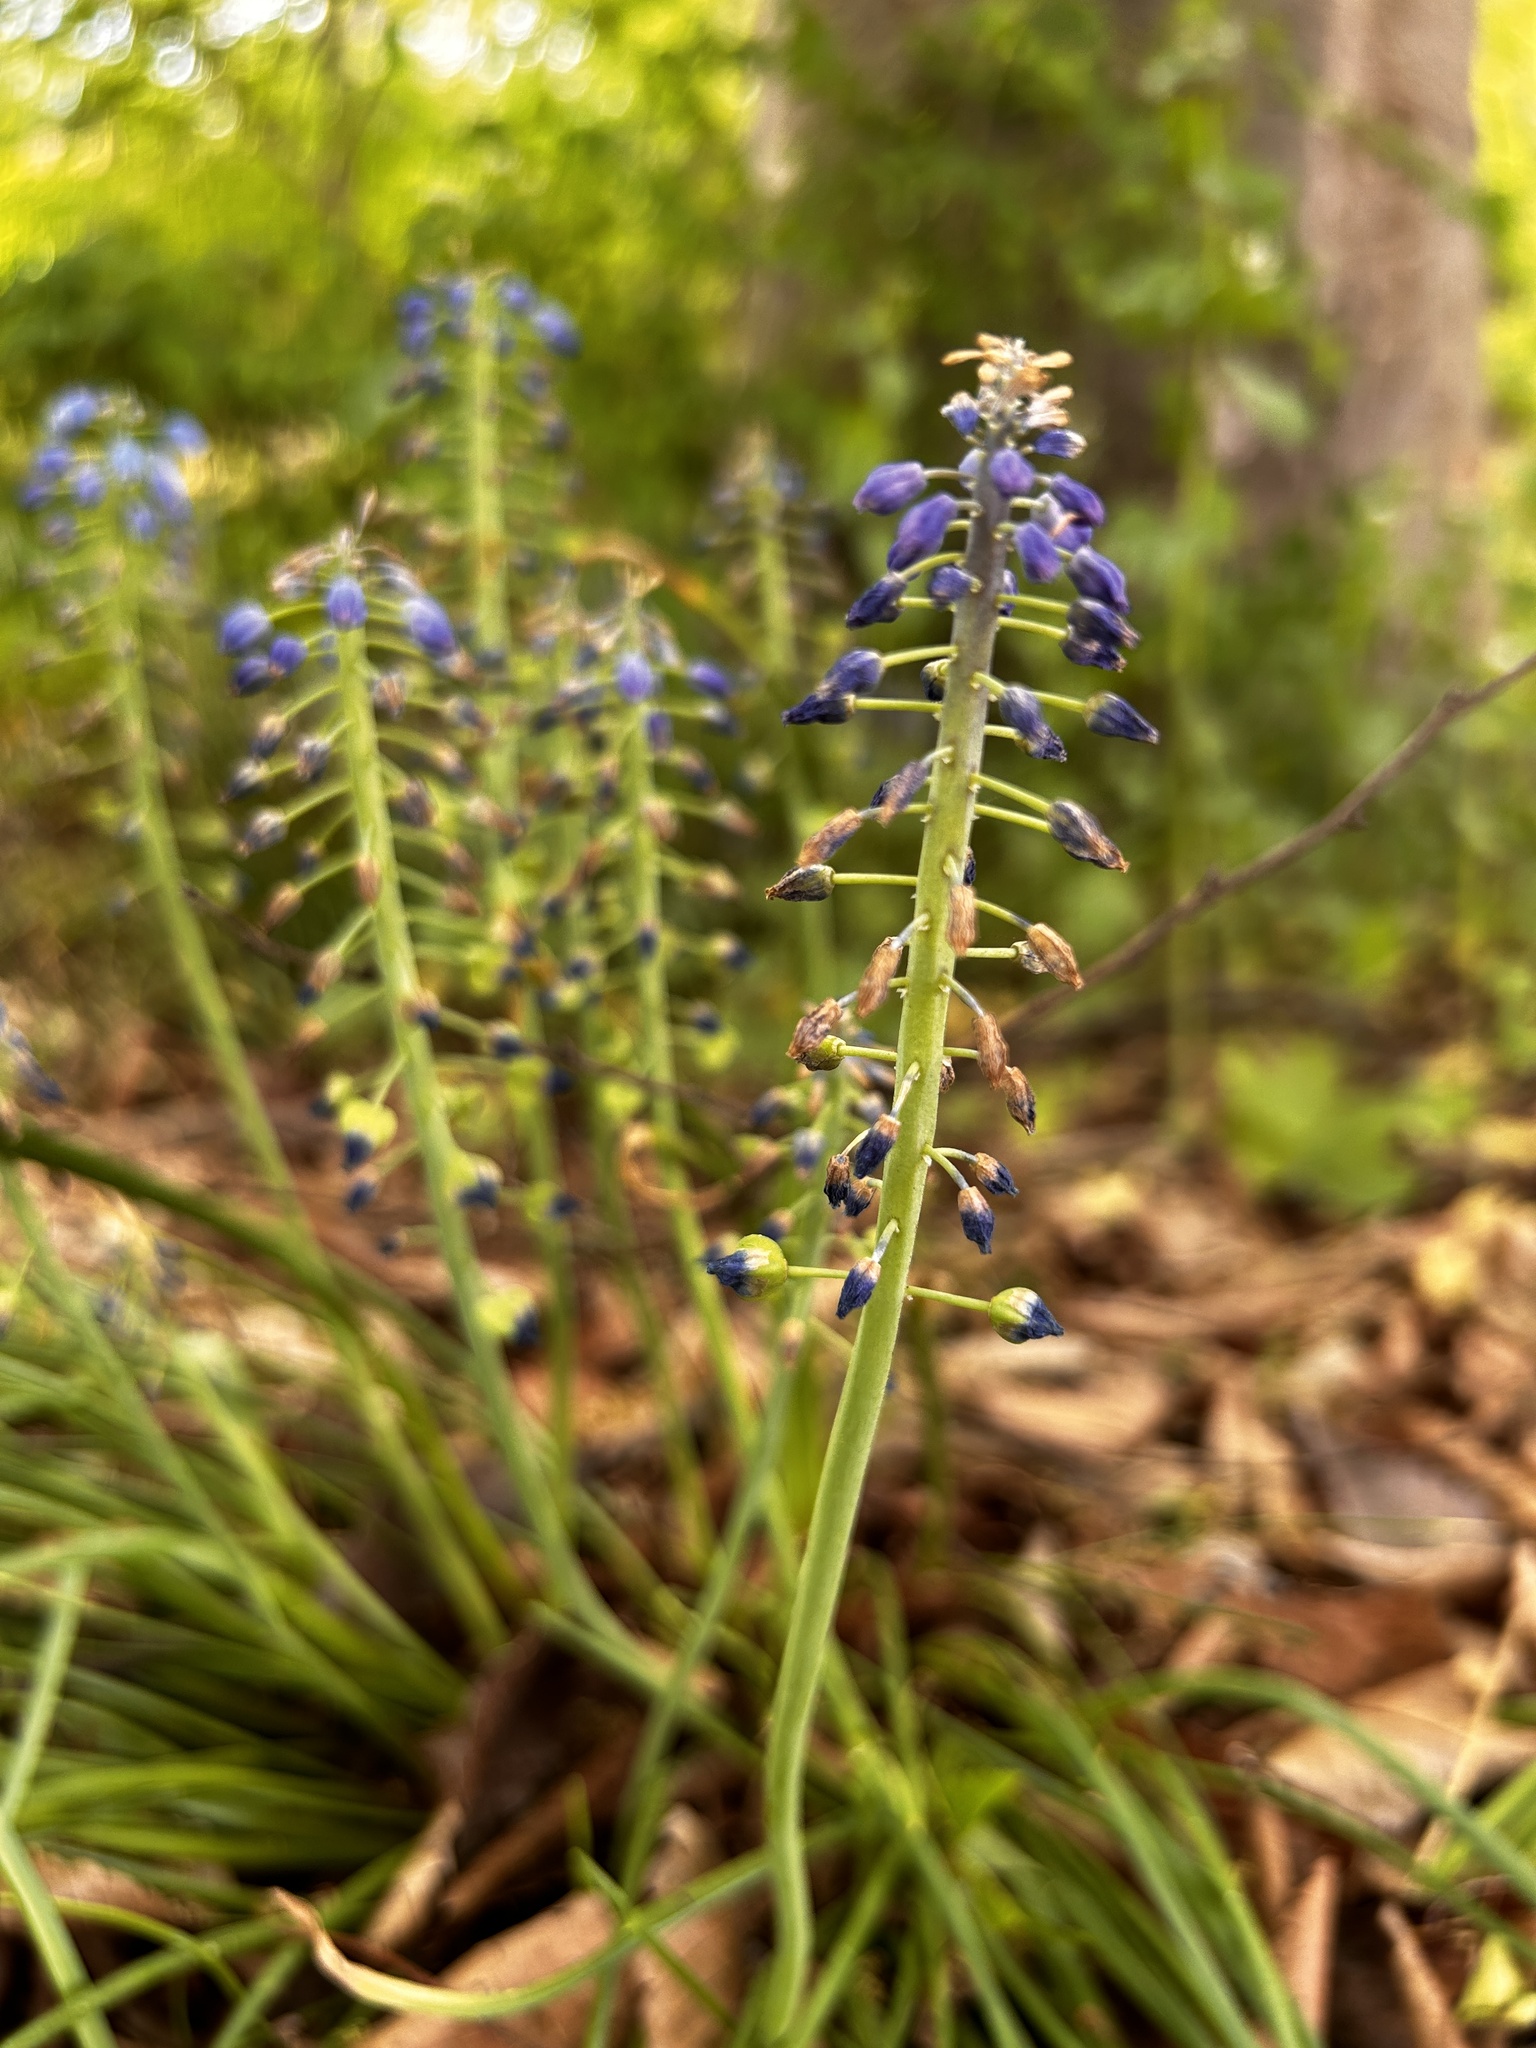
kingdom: Plantae
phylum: Tracheophyta
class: Liliopsida
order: Asparagales
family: Asparagaceae
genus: Muscari
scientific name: Muscari botryoides
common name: Compact grape-hyacinth
